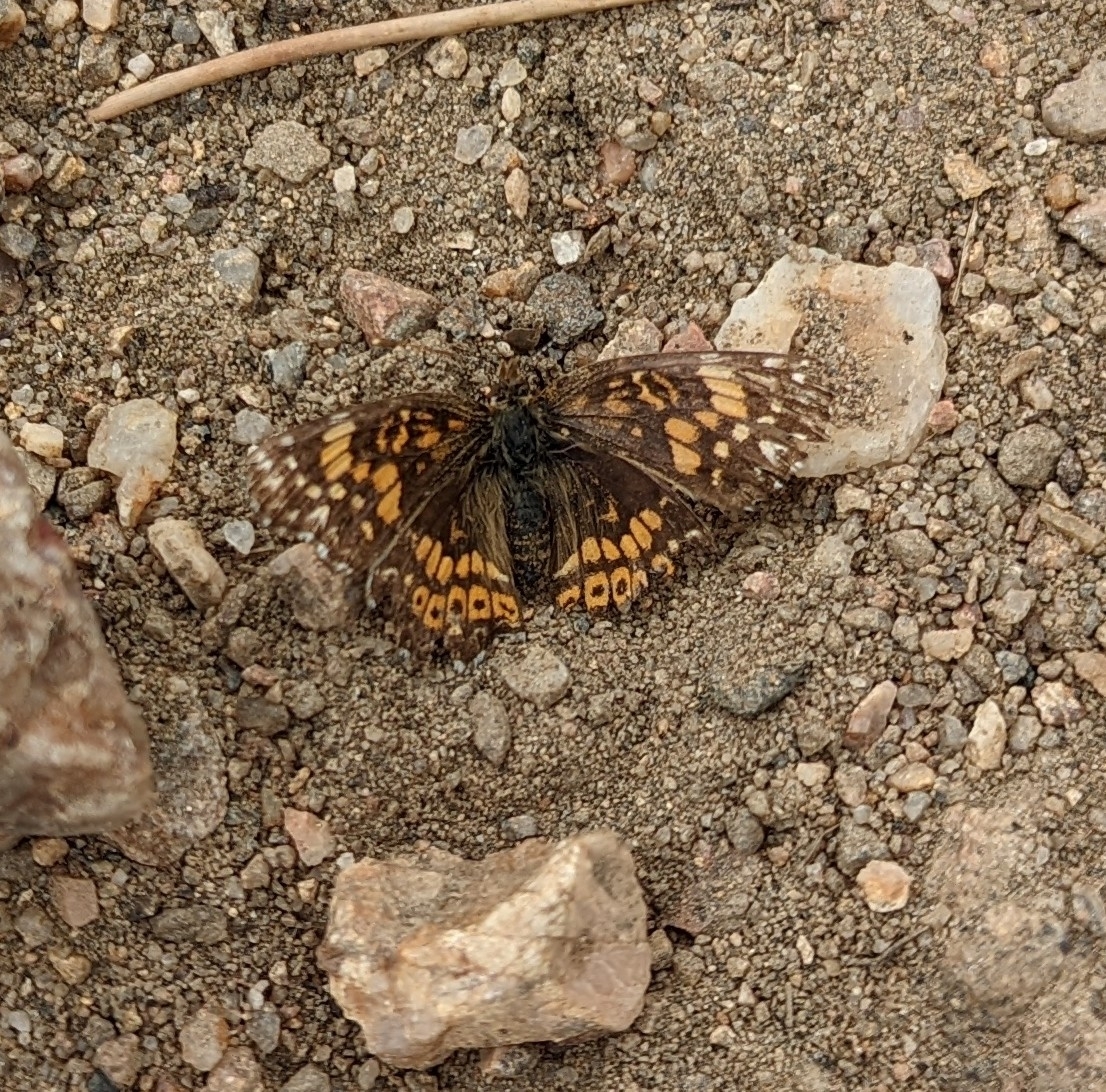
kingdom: Animalia
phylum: Arthropoda
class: Insecta
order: Lepidoptera
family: Nymphalidae
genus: Chlosyne
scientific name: Chlosyne gorgone
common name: Gorgone checkerspot
